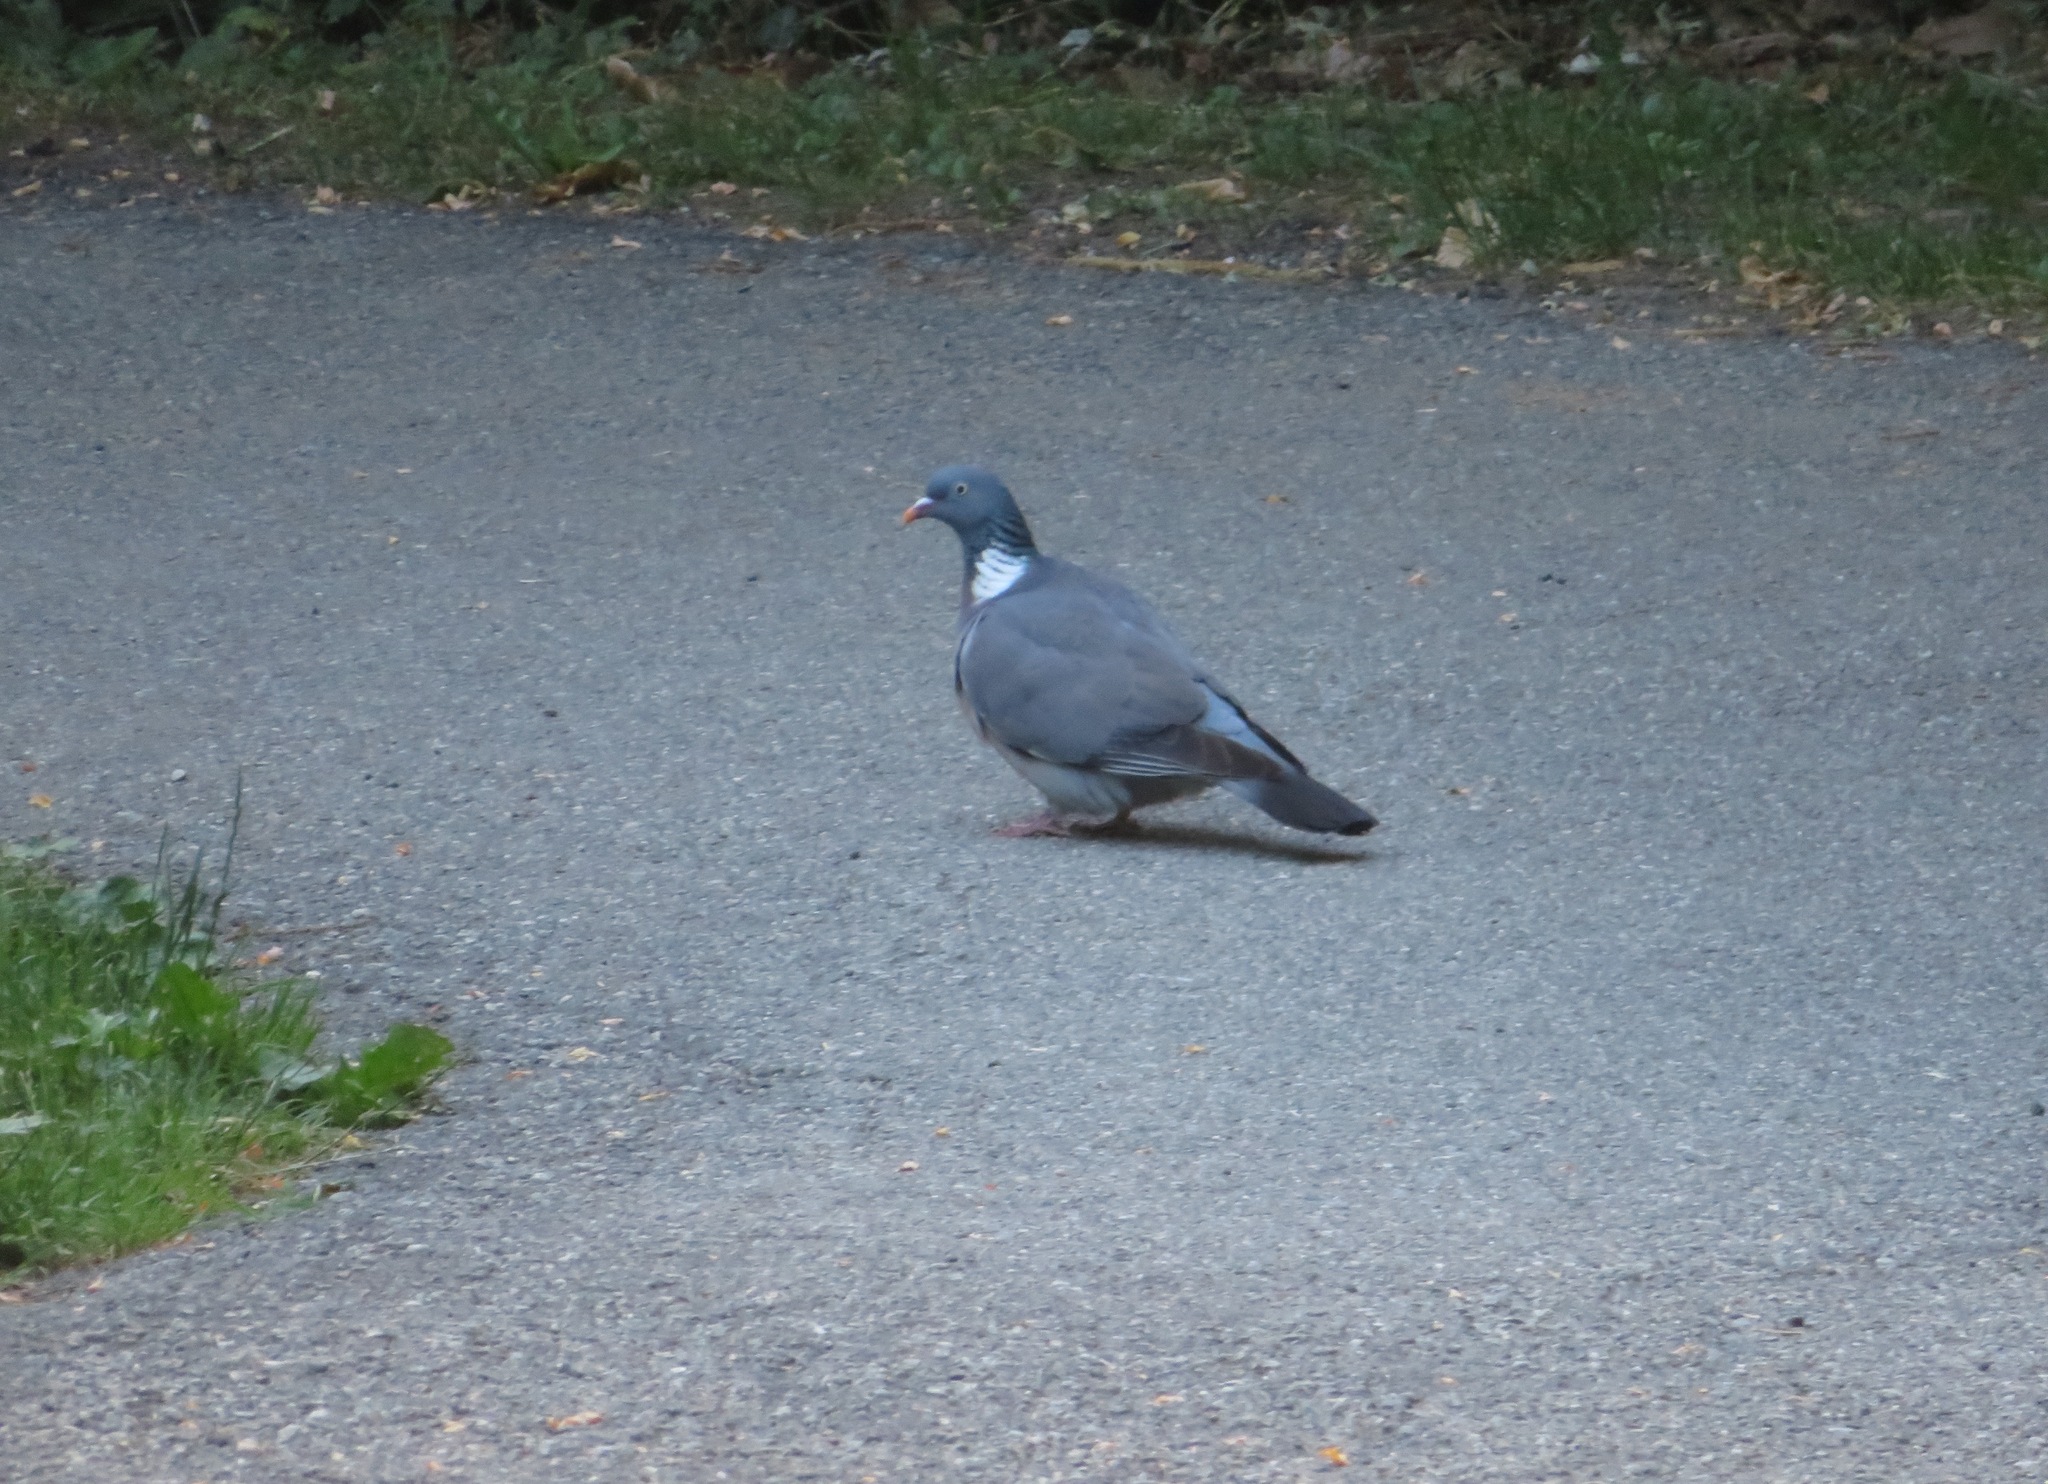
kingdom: Animalia
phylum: Chordata
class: Aves
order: Columbiformes
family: Columbidae
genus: Columba
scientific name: Columba palumbus
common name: Common wood pigeon
